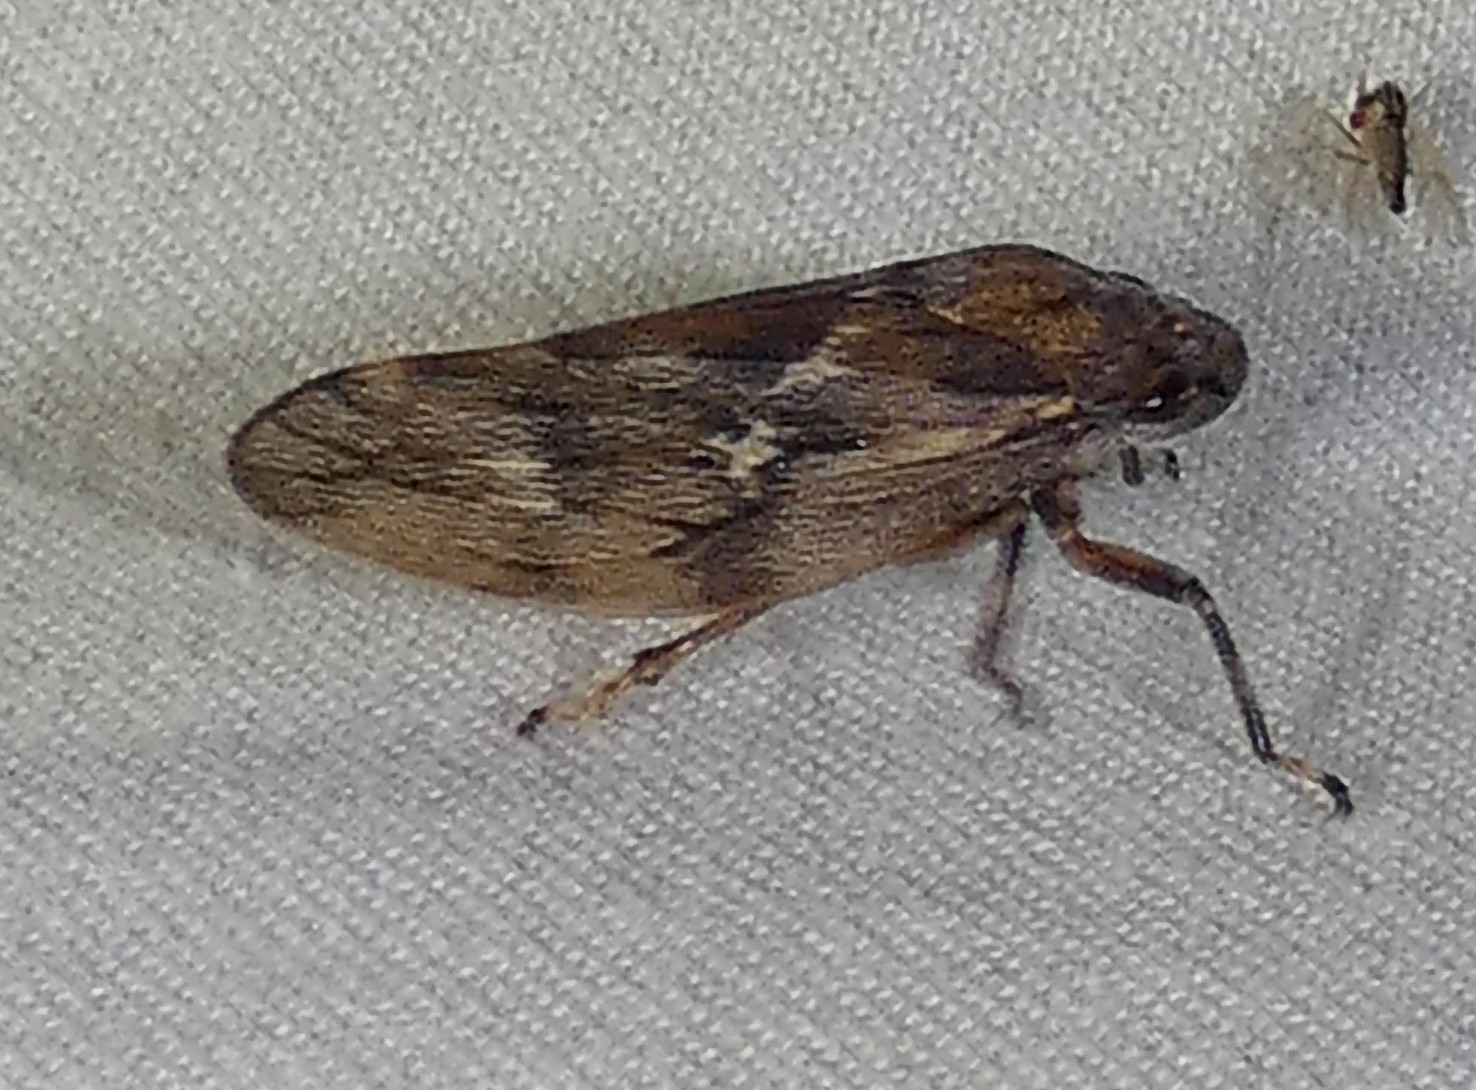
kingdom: Animalia
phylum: Arthropoda
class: Insecta
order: Hemiptera
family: Epipygidae
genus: Epipyga
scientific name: Epipyga cribrata
